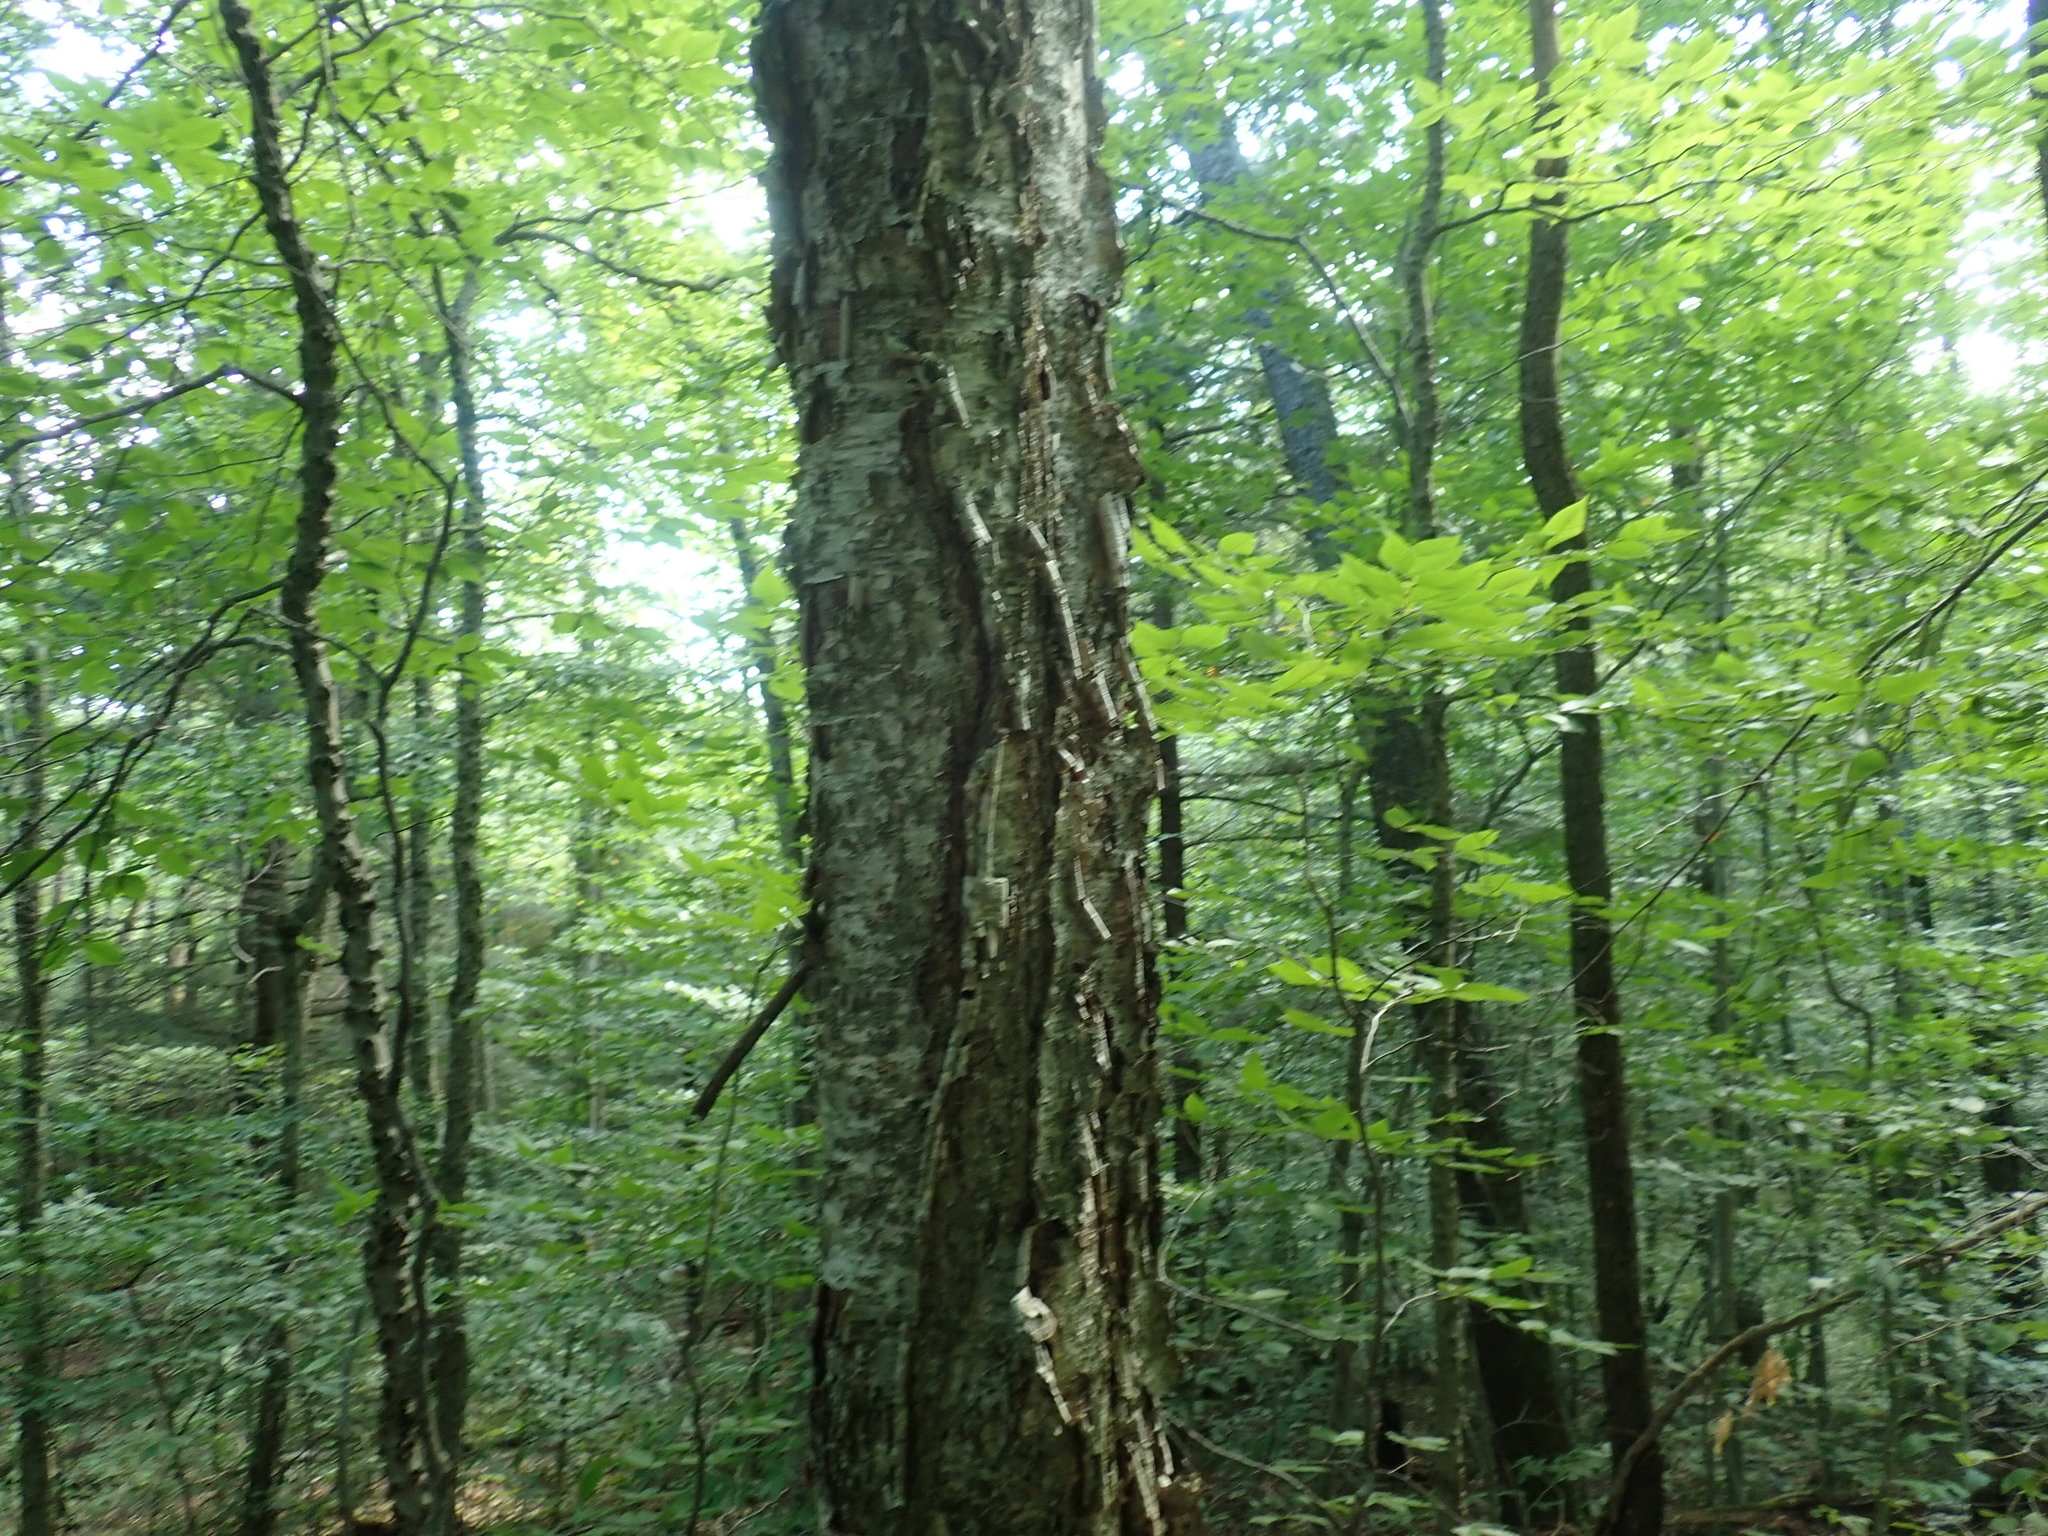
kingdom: Plantae
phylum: Tracheophyta
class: Magnoliopsida
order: Fagales
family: Betulaceae
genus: Betula
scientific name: Betula alleghaniensis
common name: Yellow birch
